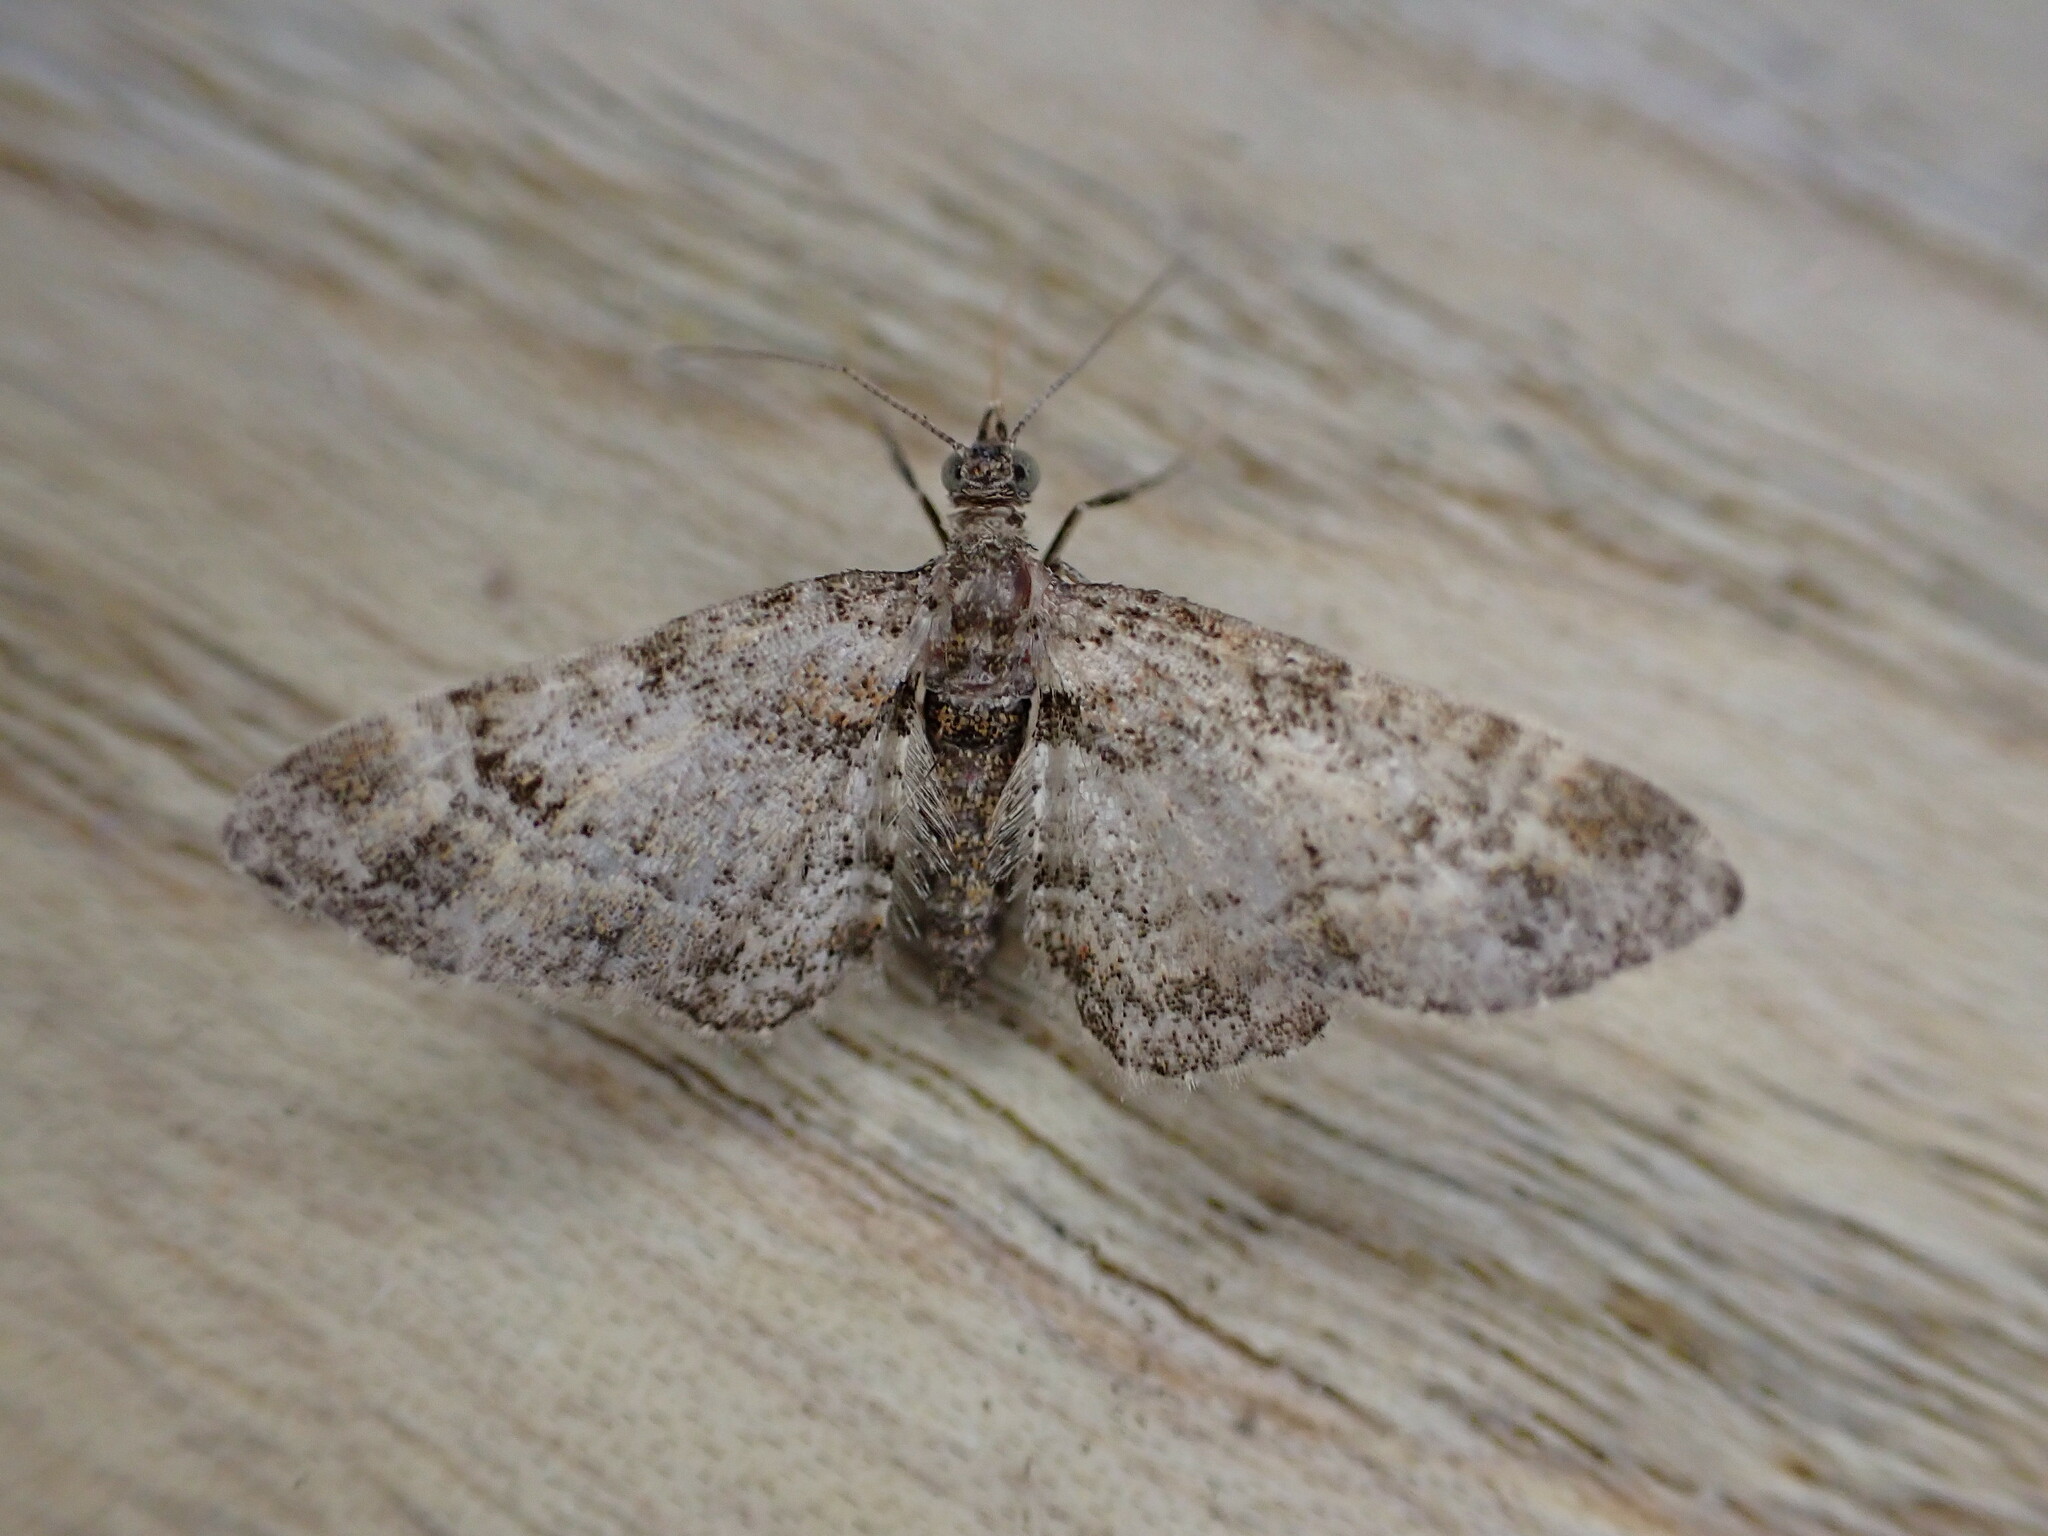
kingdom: Animalia
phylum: Arthropoda
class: Insecta
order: Lepidoptera
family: Geometridae
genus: Gymnoscelis
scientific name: Gymnoscelis rufifasciata
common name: Double-striped pug
